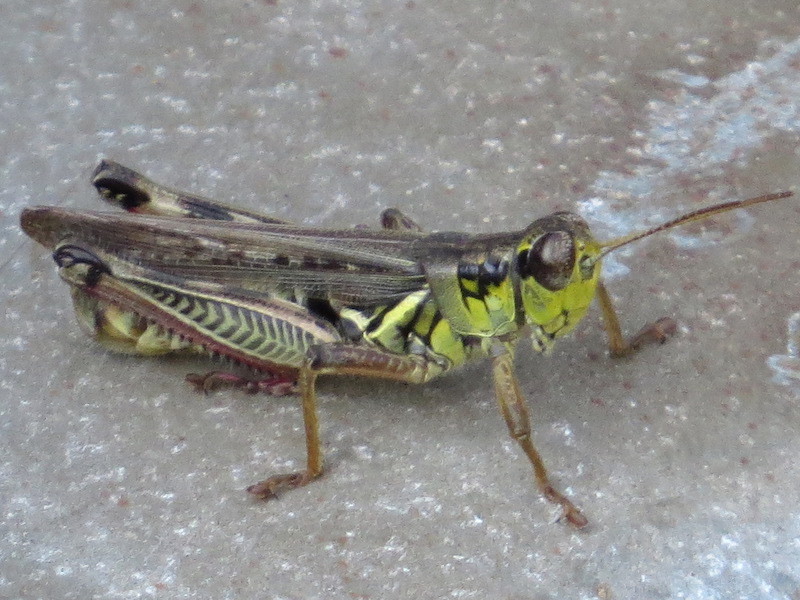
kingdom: Animalia
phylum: Arthropoda
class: Insecta
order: Orthoptera
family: Acrididae
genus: Melanoplus
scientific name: Melanoplus femurrubrum
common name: Red-legged grasshopper
